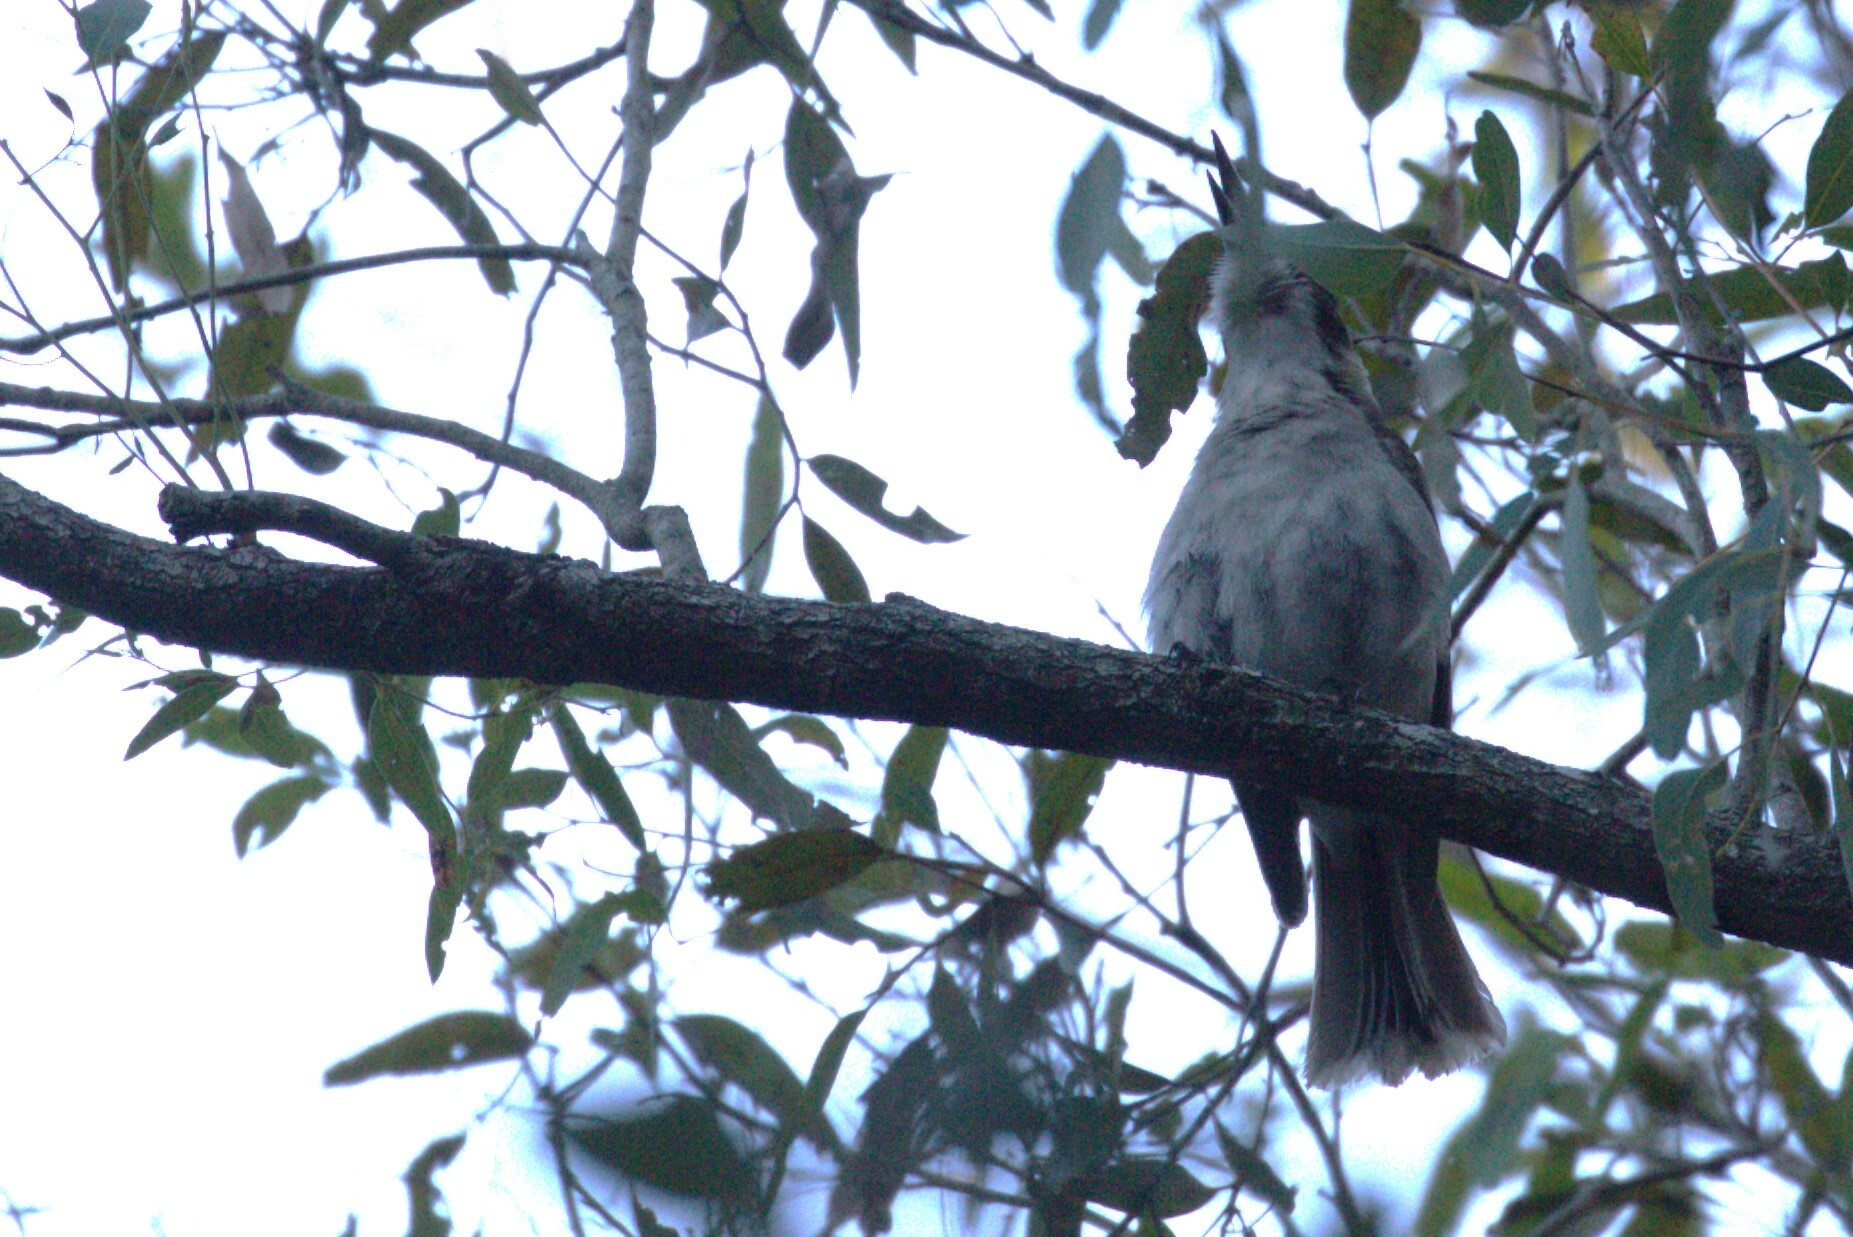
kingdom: Animalia
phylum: Chordata
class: Aves
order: Passeriformes
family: Cracticidae
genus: Cracticus
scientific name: Cracticus torquatus
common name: Grey butcherbird
